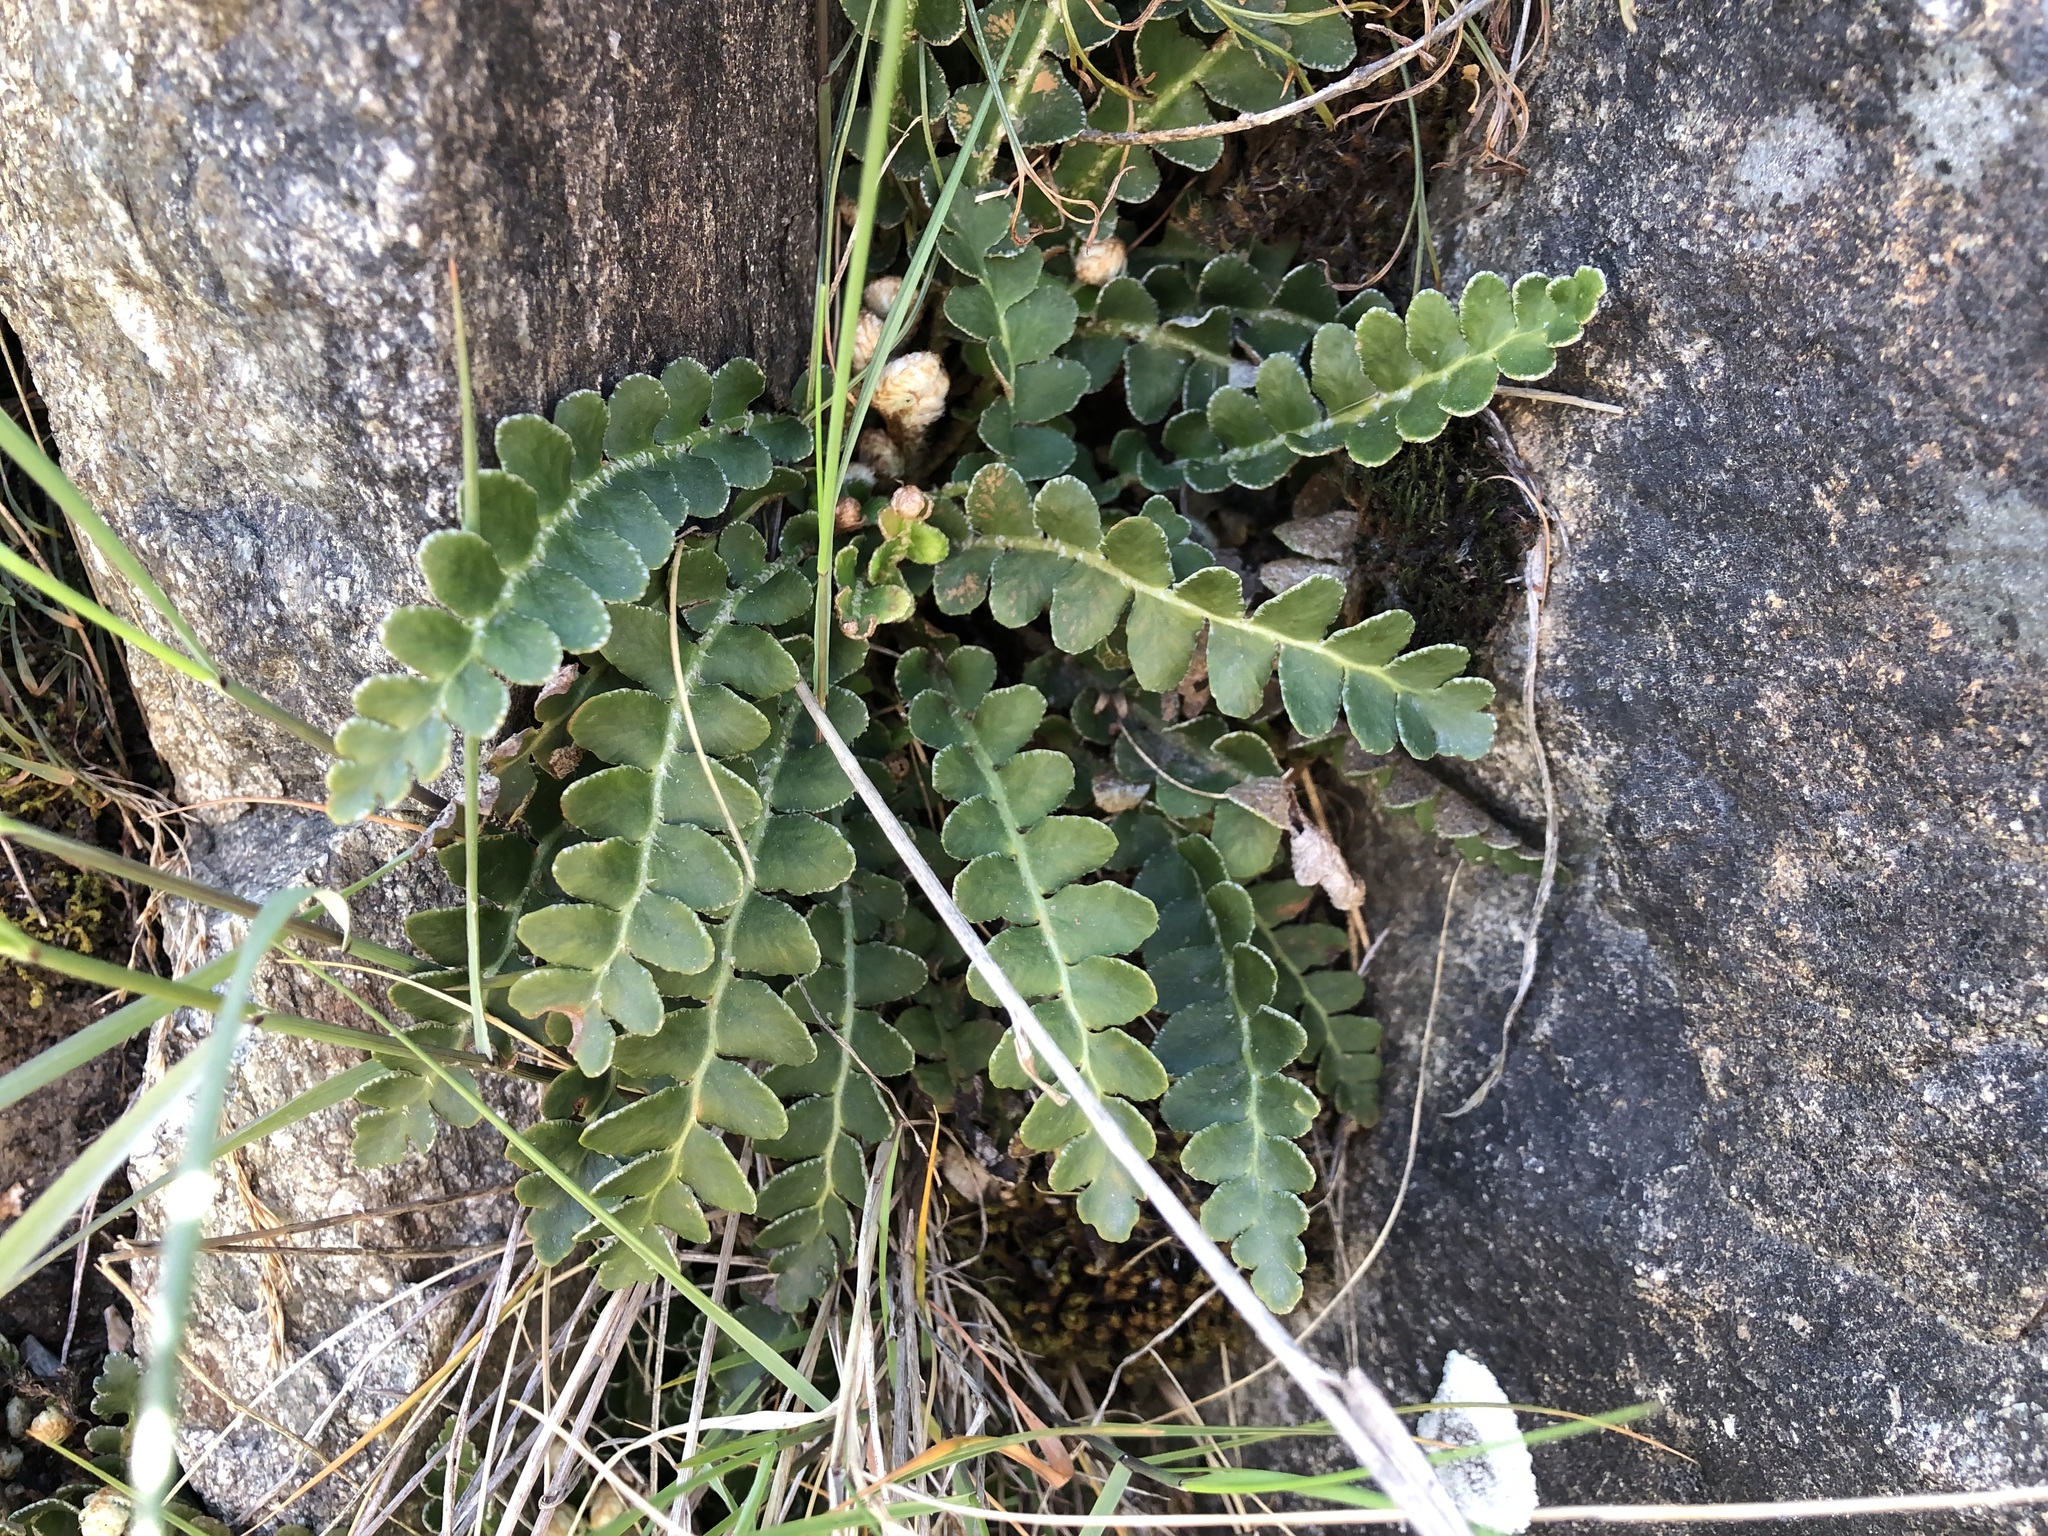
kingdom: Plantae
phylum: Tracheophyta
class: Polypodiopsida
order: Polypodiales
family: Aspleniaceae
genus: Asplenium
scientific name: Asplenium ceterach
